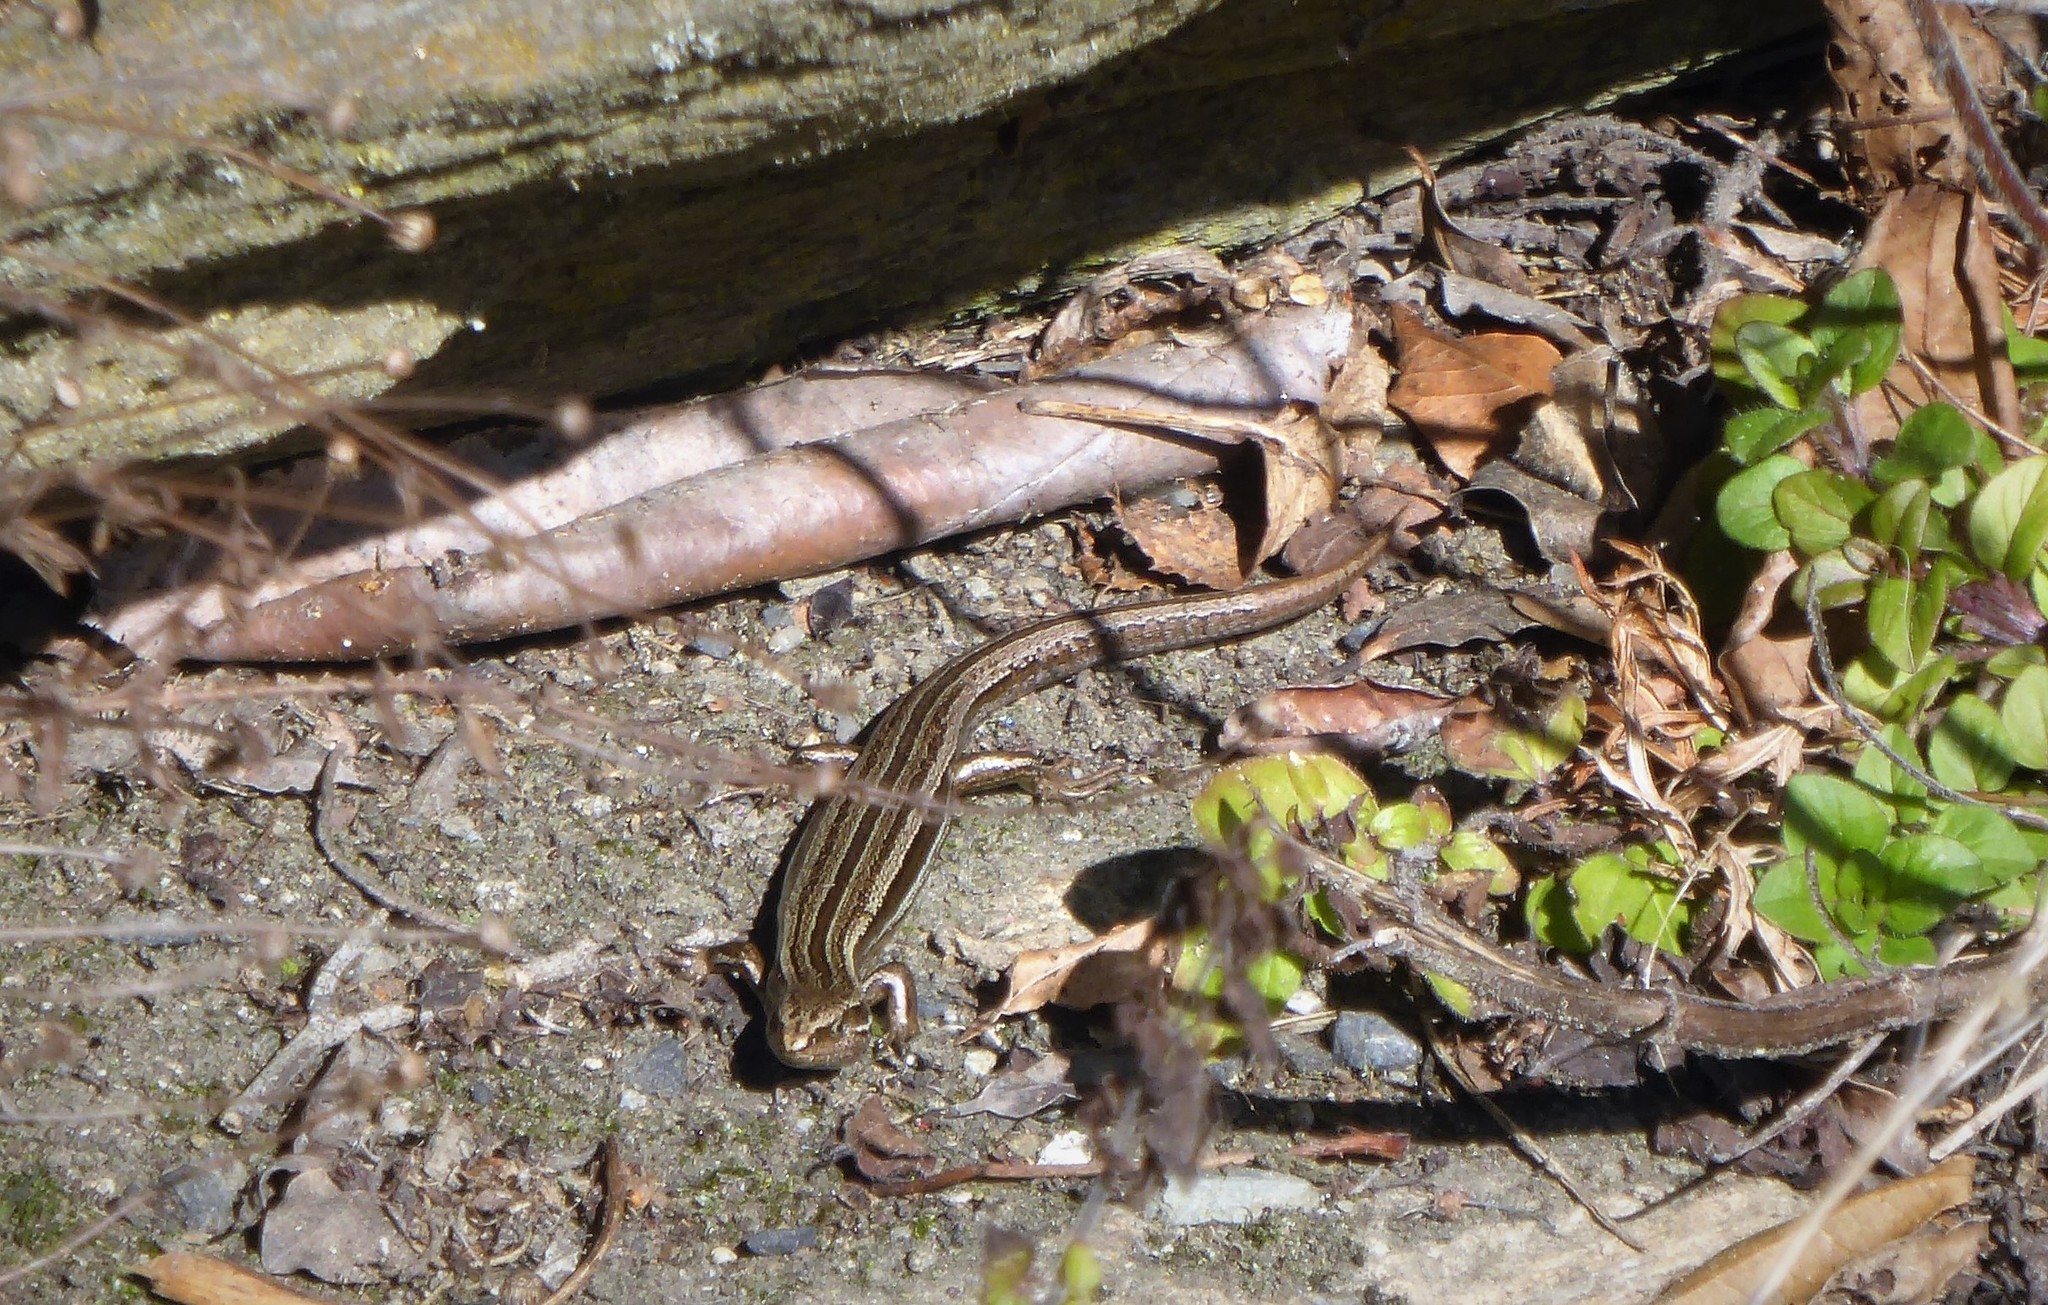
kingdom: Animalia
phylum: Chordata
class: Squamata
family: Scincidae
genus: Oligosoma
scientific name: Oligosoma polychroma
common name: Common new zealand skink
